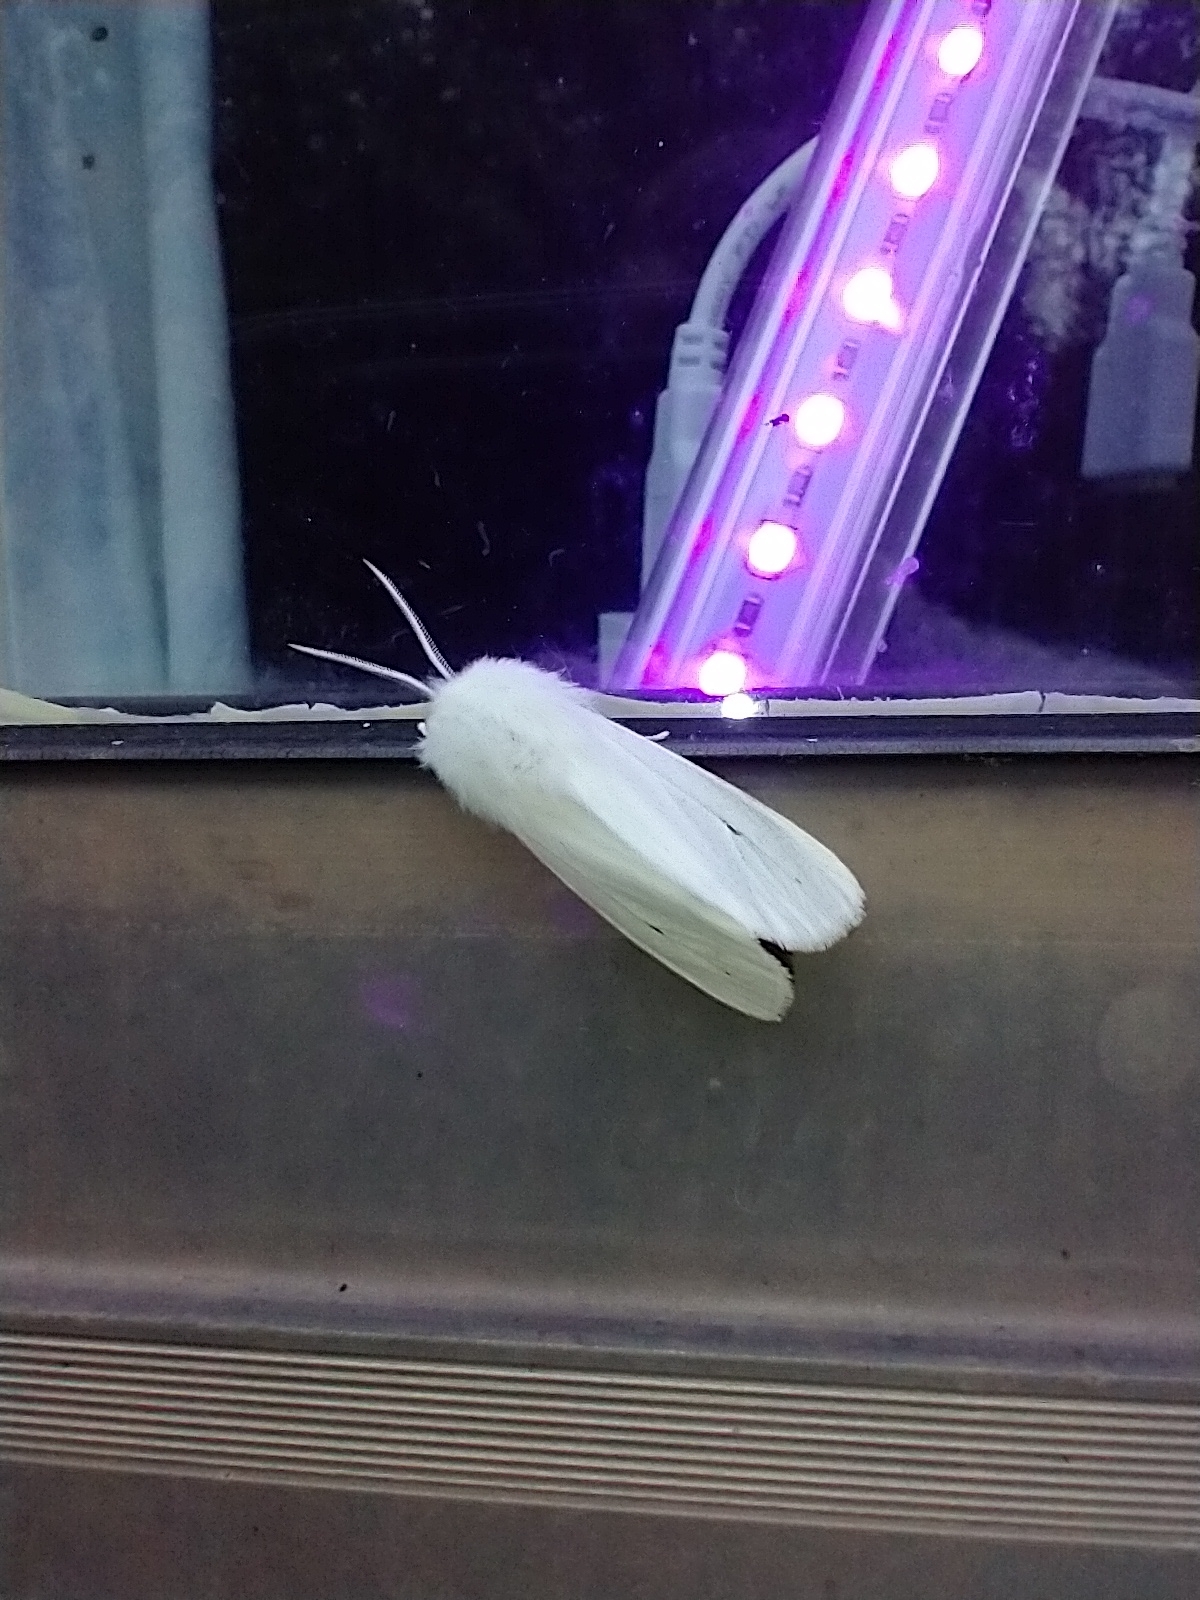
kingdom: Animalia
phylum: Arthropoda
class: Insecta
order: Lepidoptera
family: Erebidae
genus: Spilosoma
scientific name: Spilosoma virginica
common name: Virginia tiger moth
